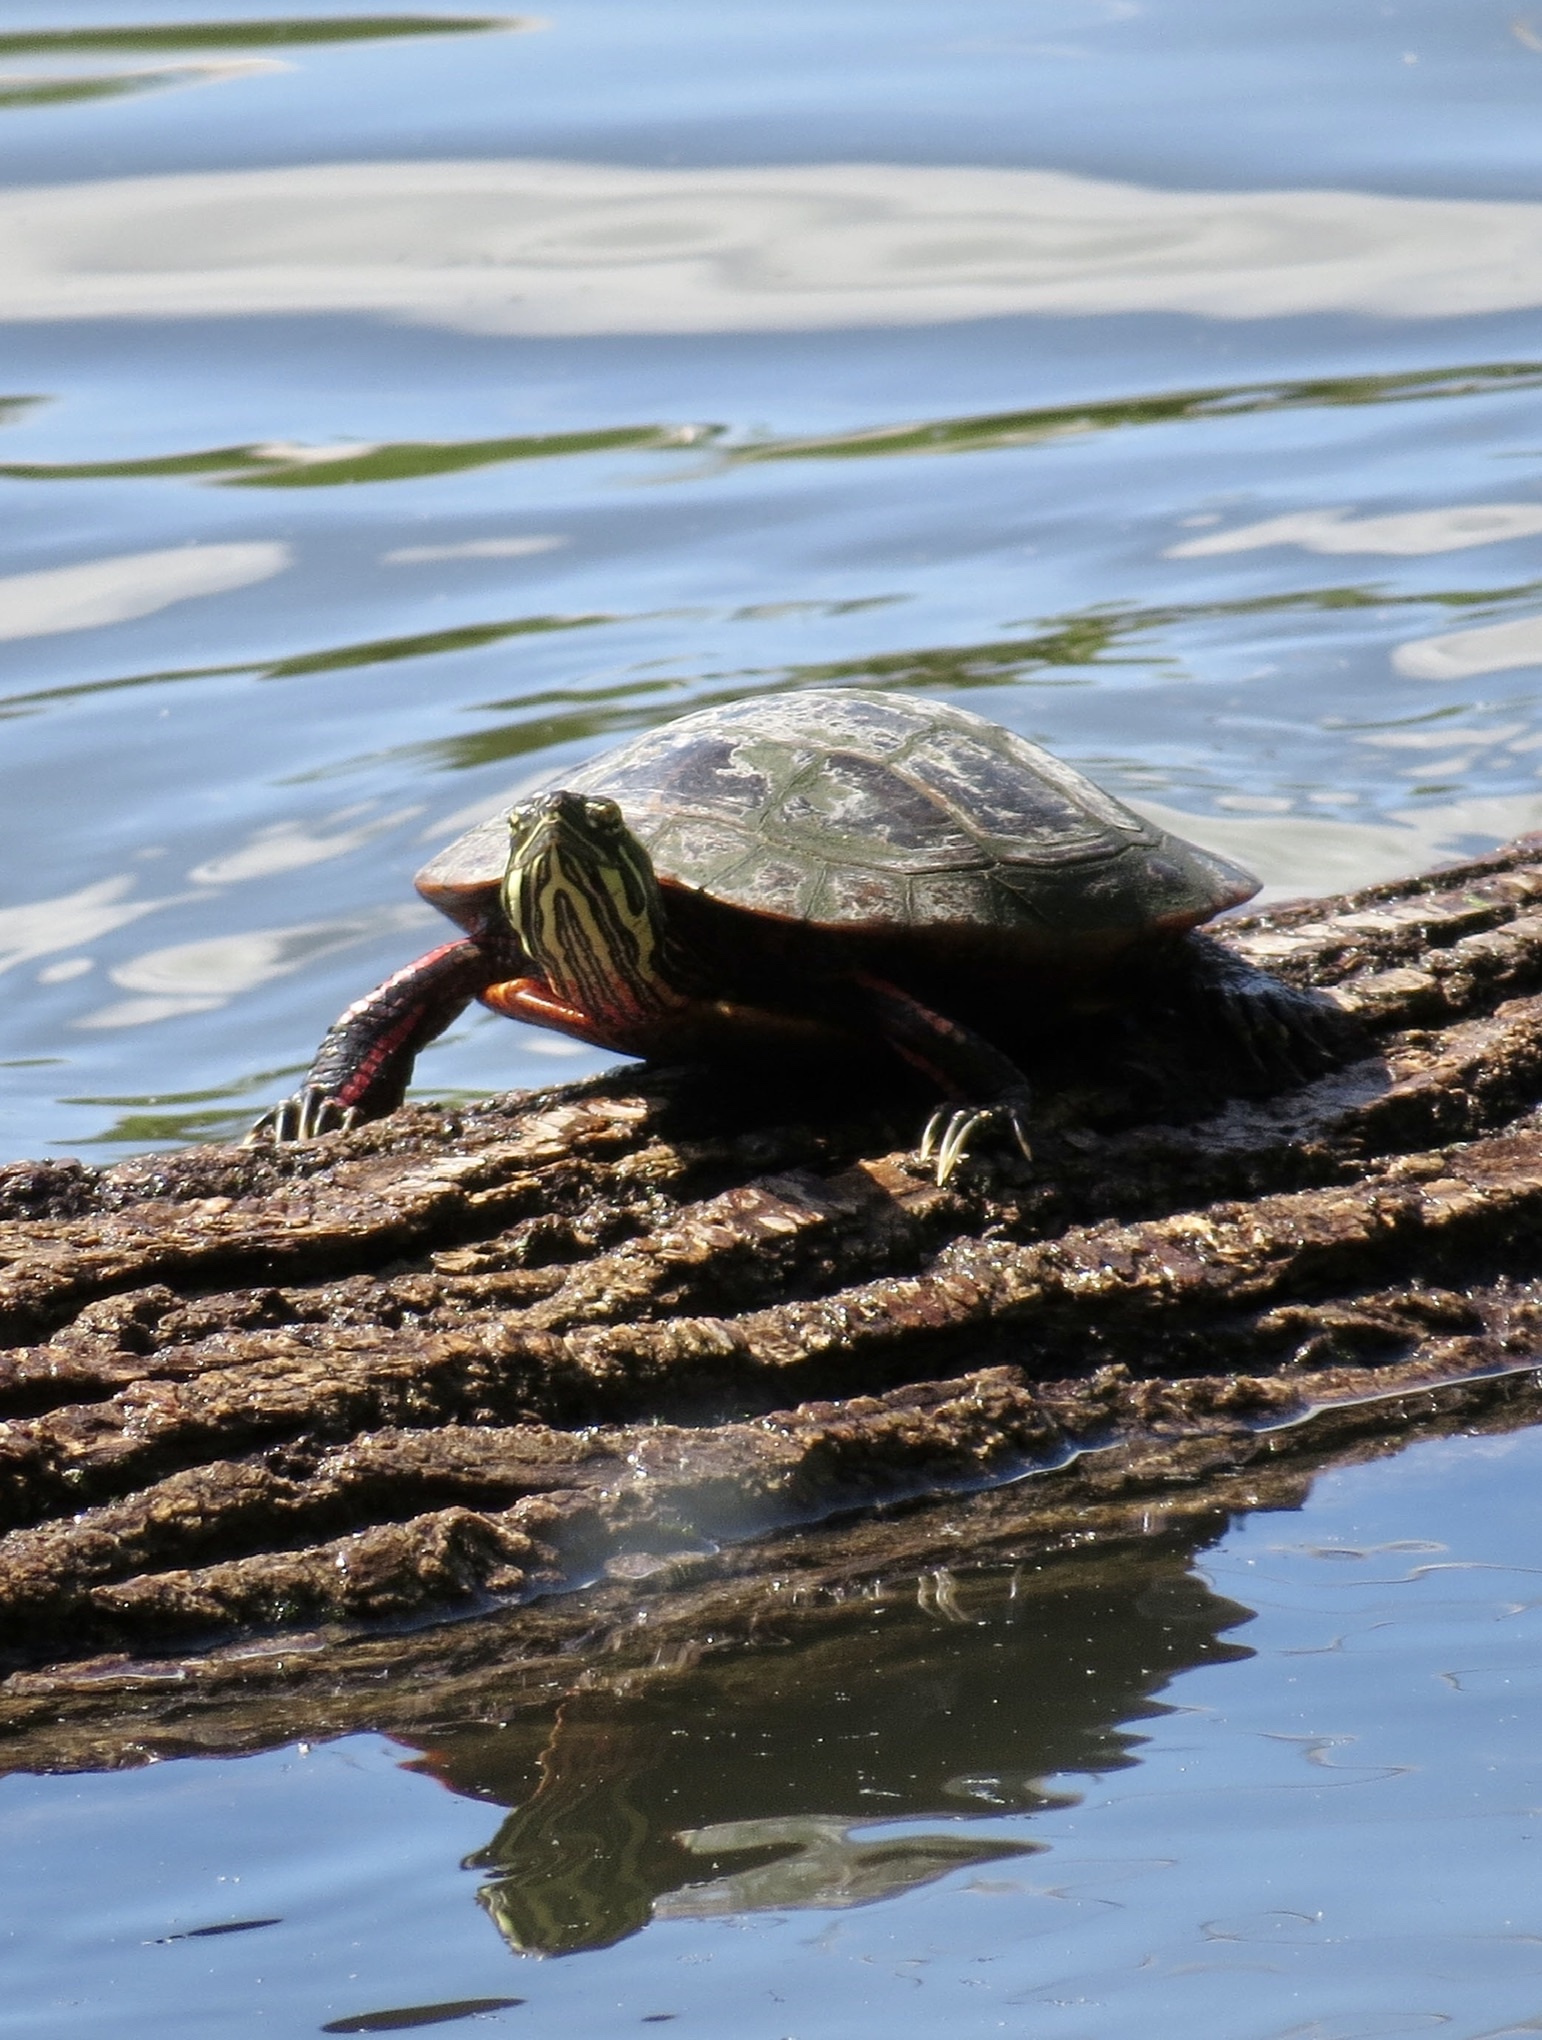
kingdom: Animalia
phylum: Chordata
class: Testudines
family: Emydidae
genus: Chrysemys
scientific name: Chrysemys picta
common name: Painted turtle
